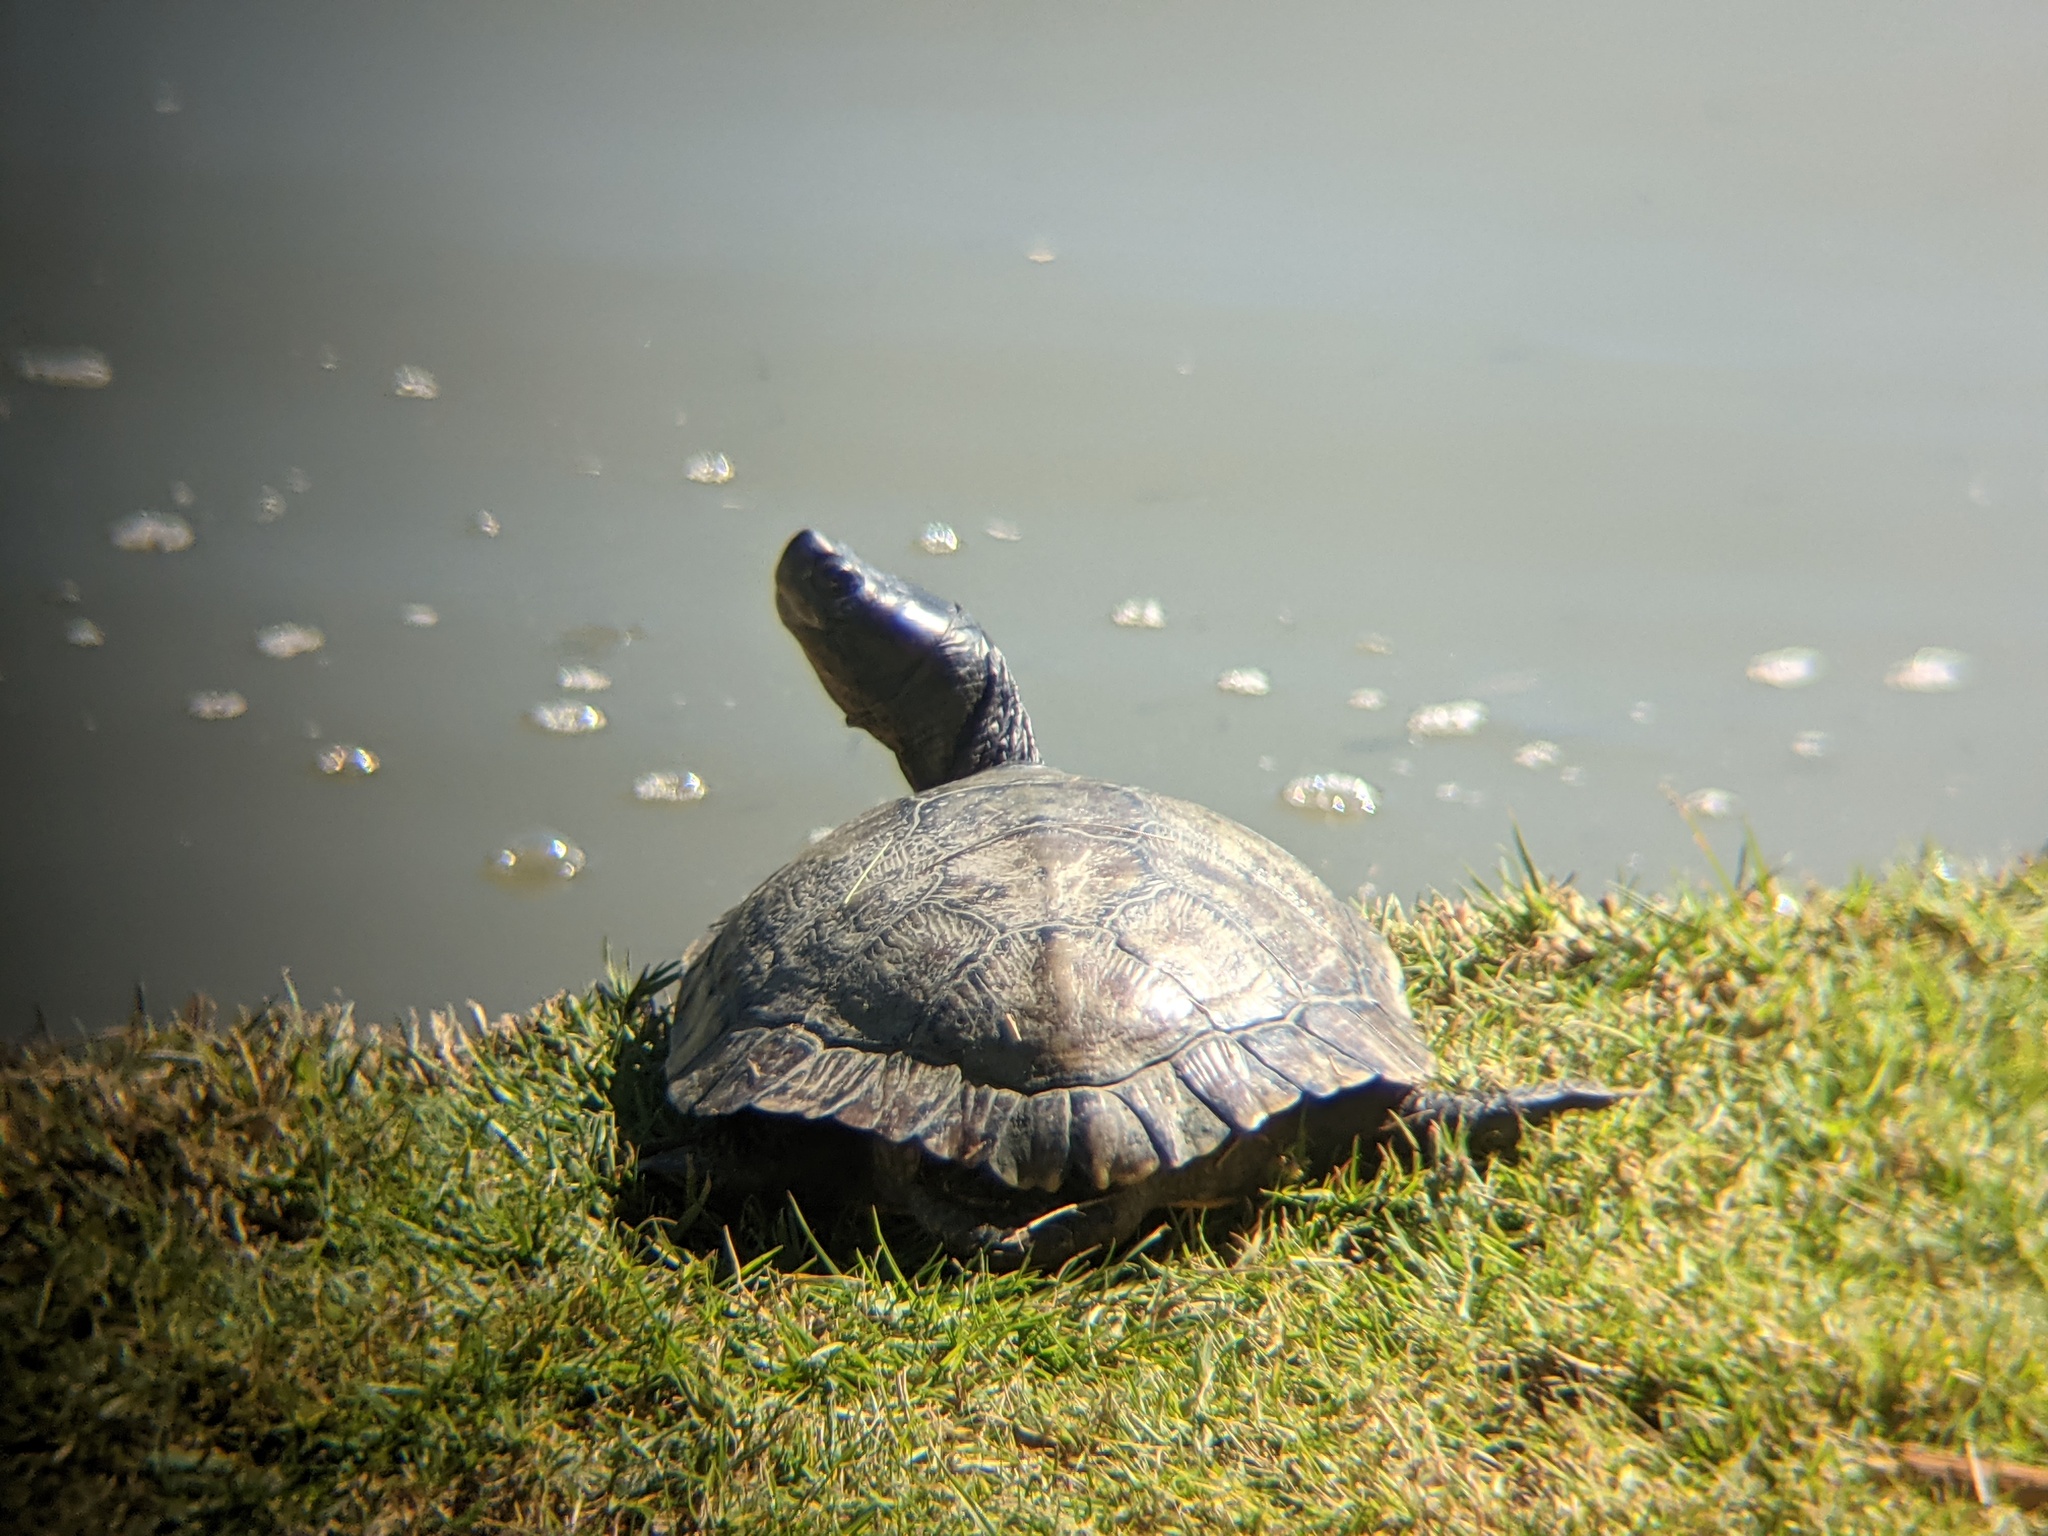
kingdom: Animalia
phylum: Chordata
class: Testudines
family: Emydidae
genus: Trachemys
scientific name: Trachemys scripta
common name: Slider
